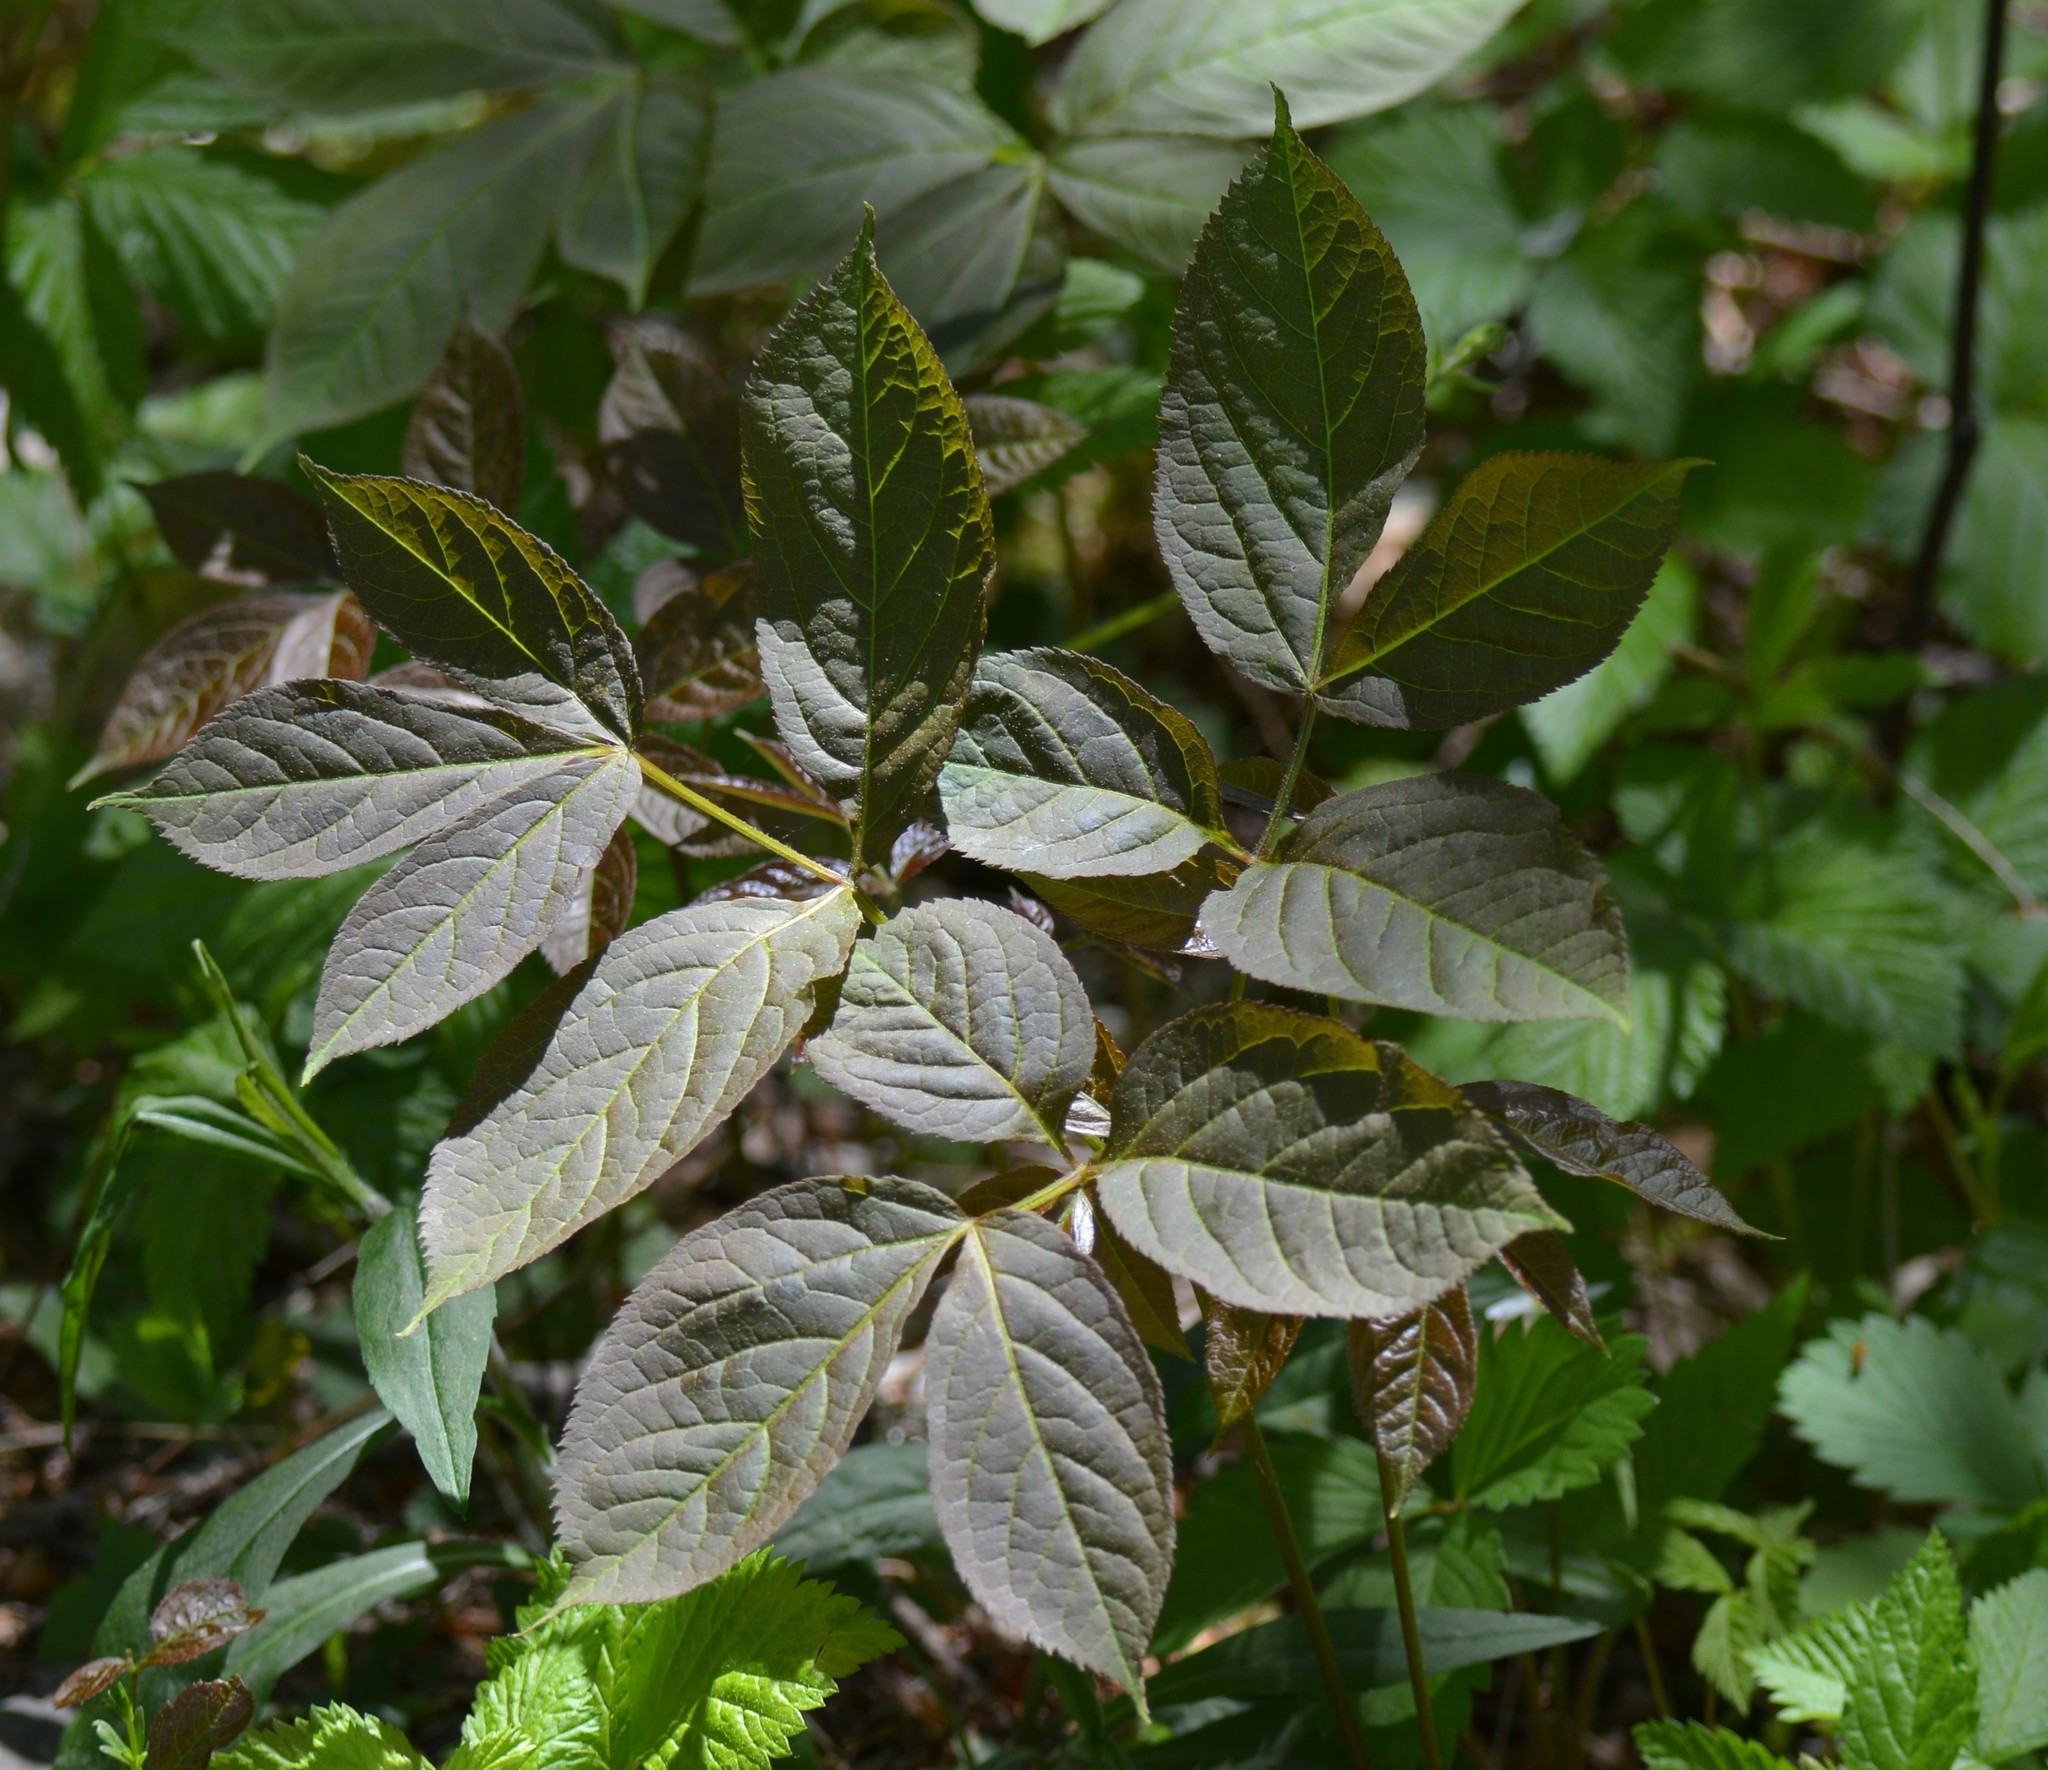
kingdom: Plantae
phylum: Tracheophyta
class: Magnoliopsida
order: Apiales
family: Araliaceae
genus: Aralia
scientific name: Aralia nudicaulis
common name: Wild sarsaparilla
